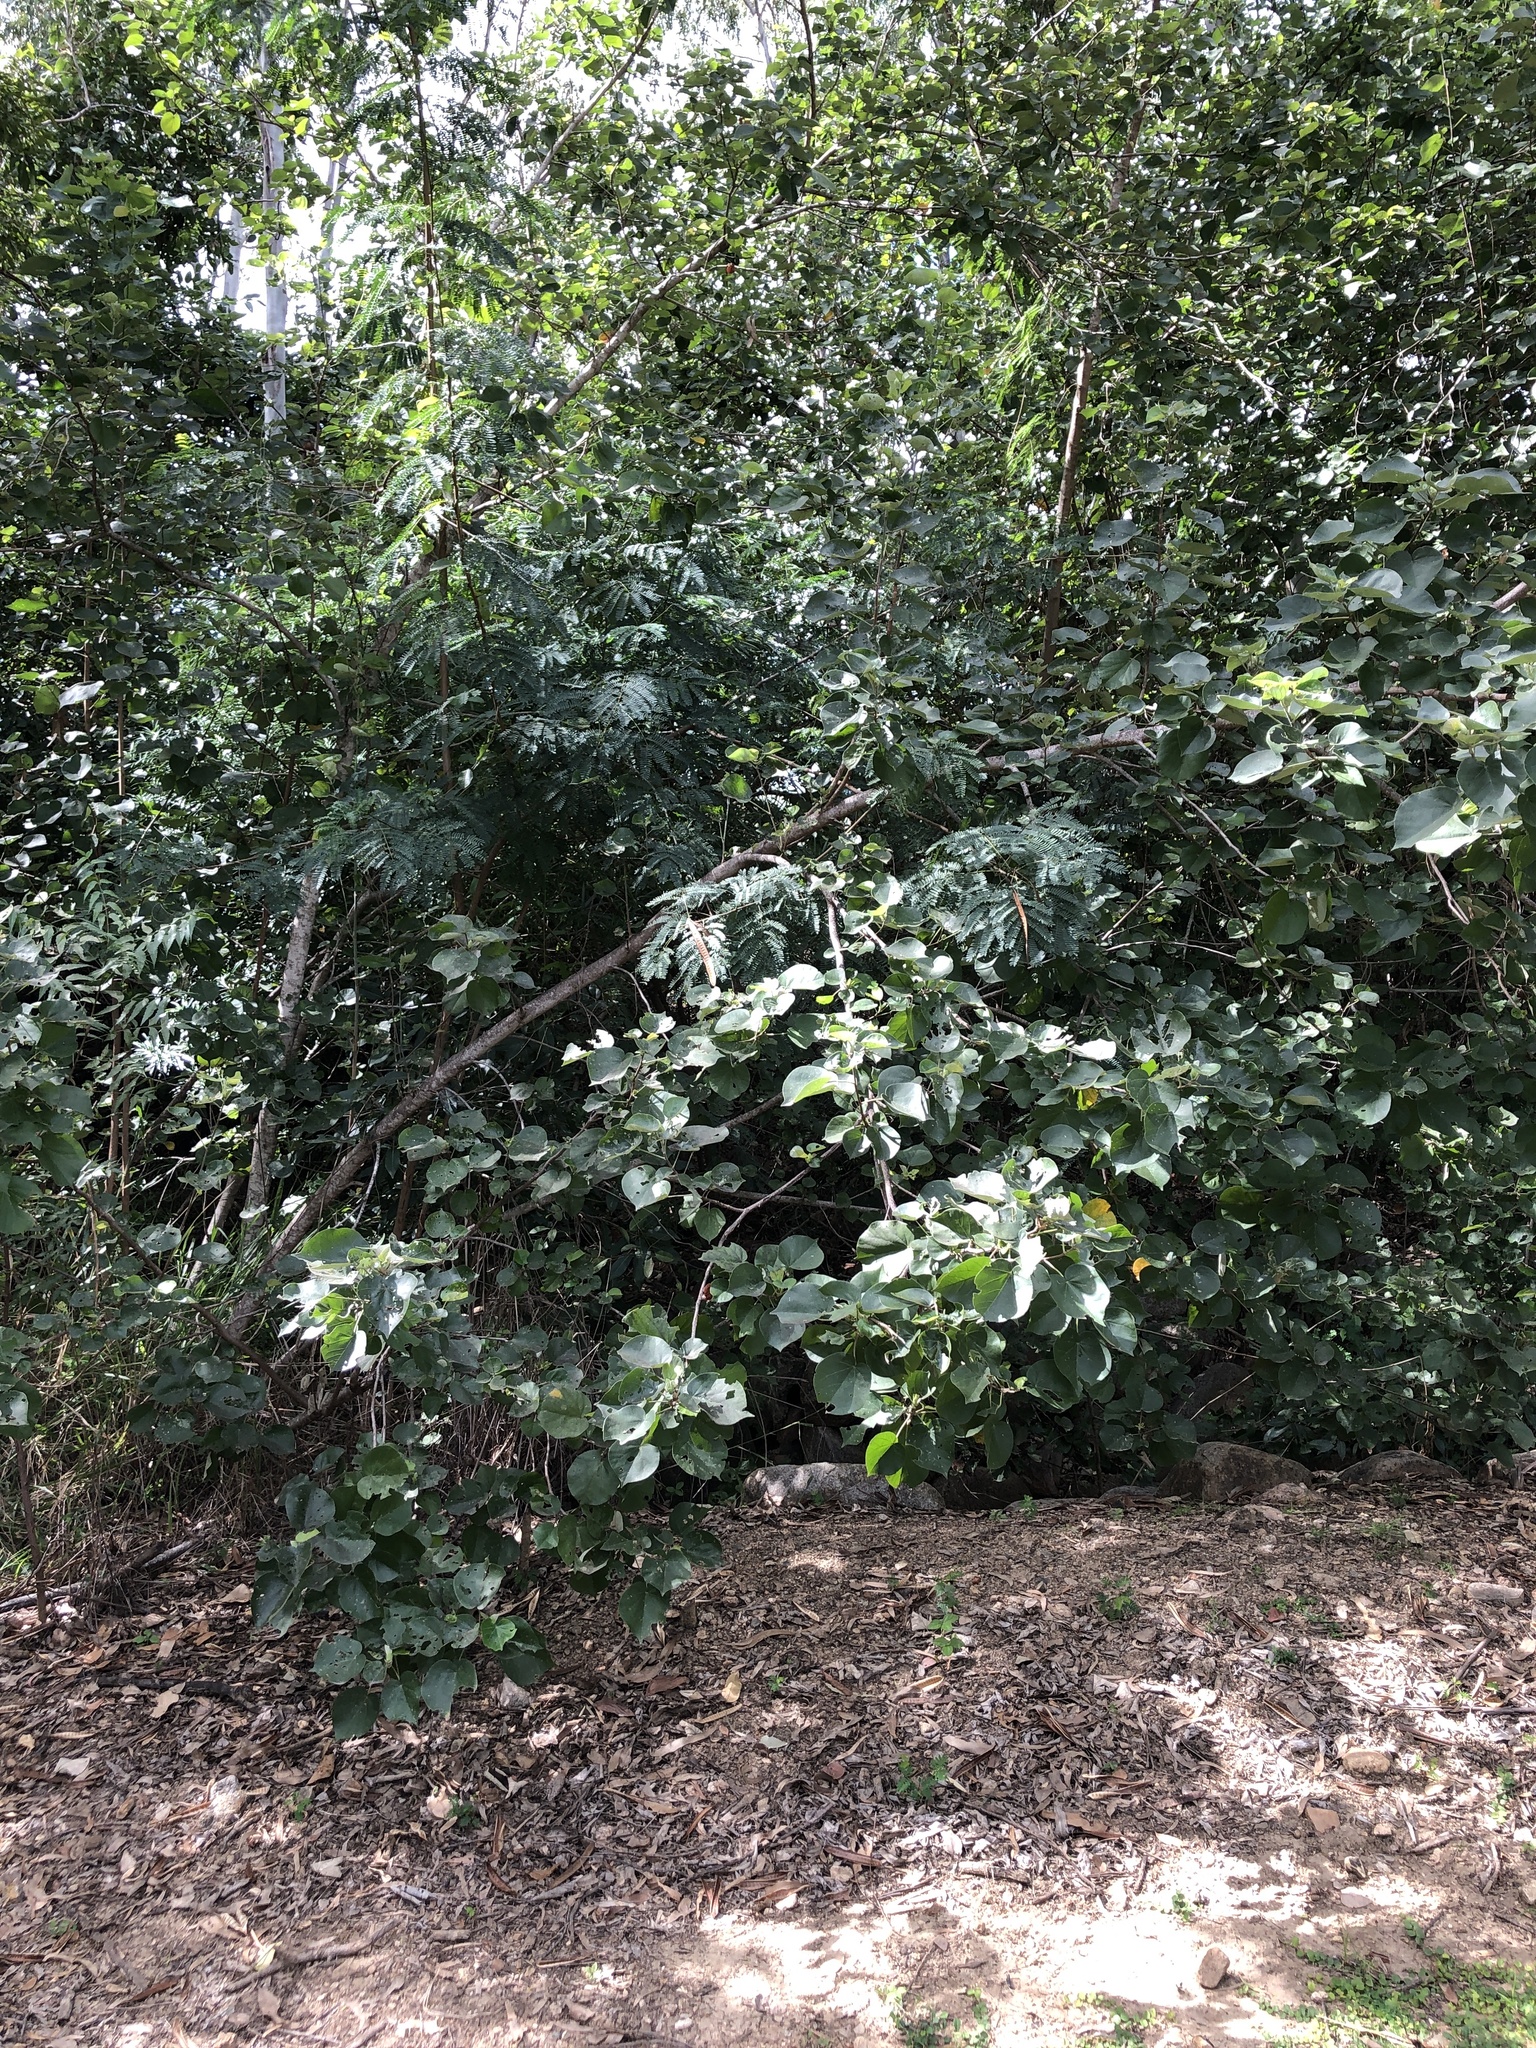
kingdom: Plantae
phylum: Tracheophyta
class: Magnoliopsida
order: Malvales
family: Malvaceae
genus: Talipariti
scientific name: Talipariti tiliaceum
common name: Sea hibiscus
